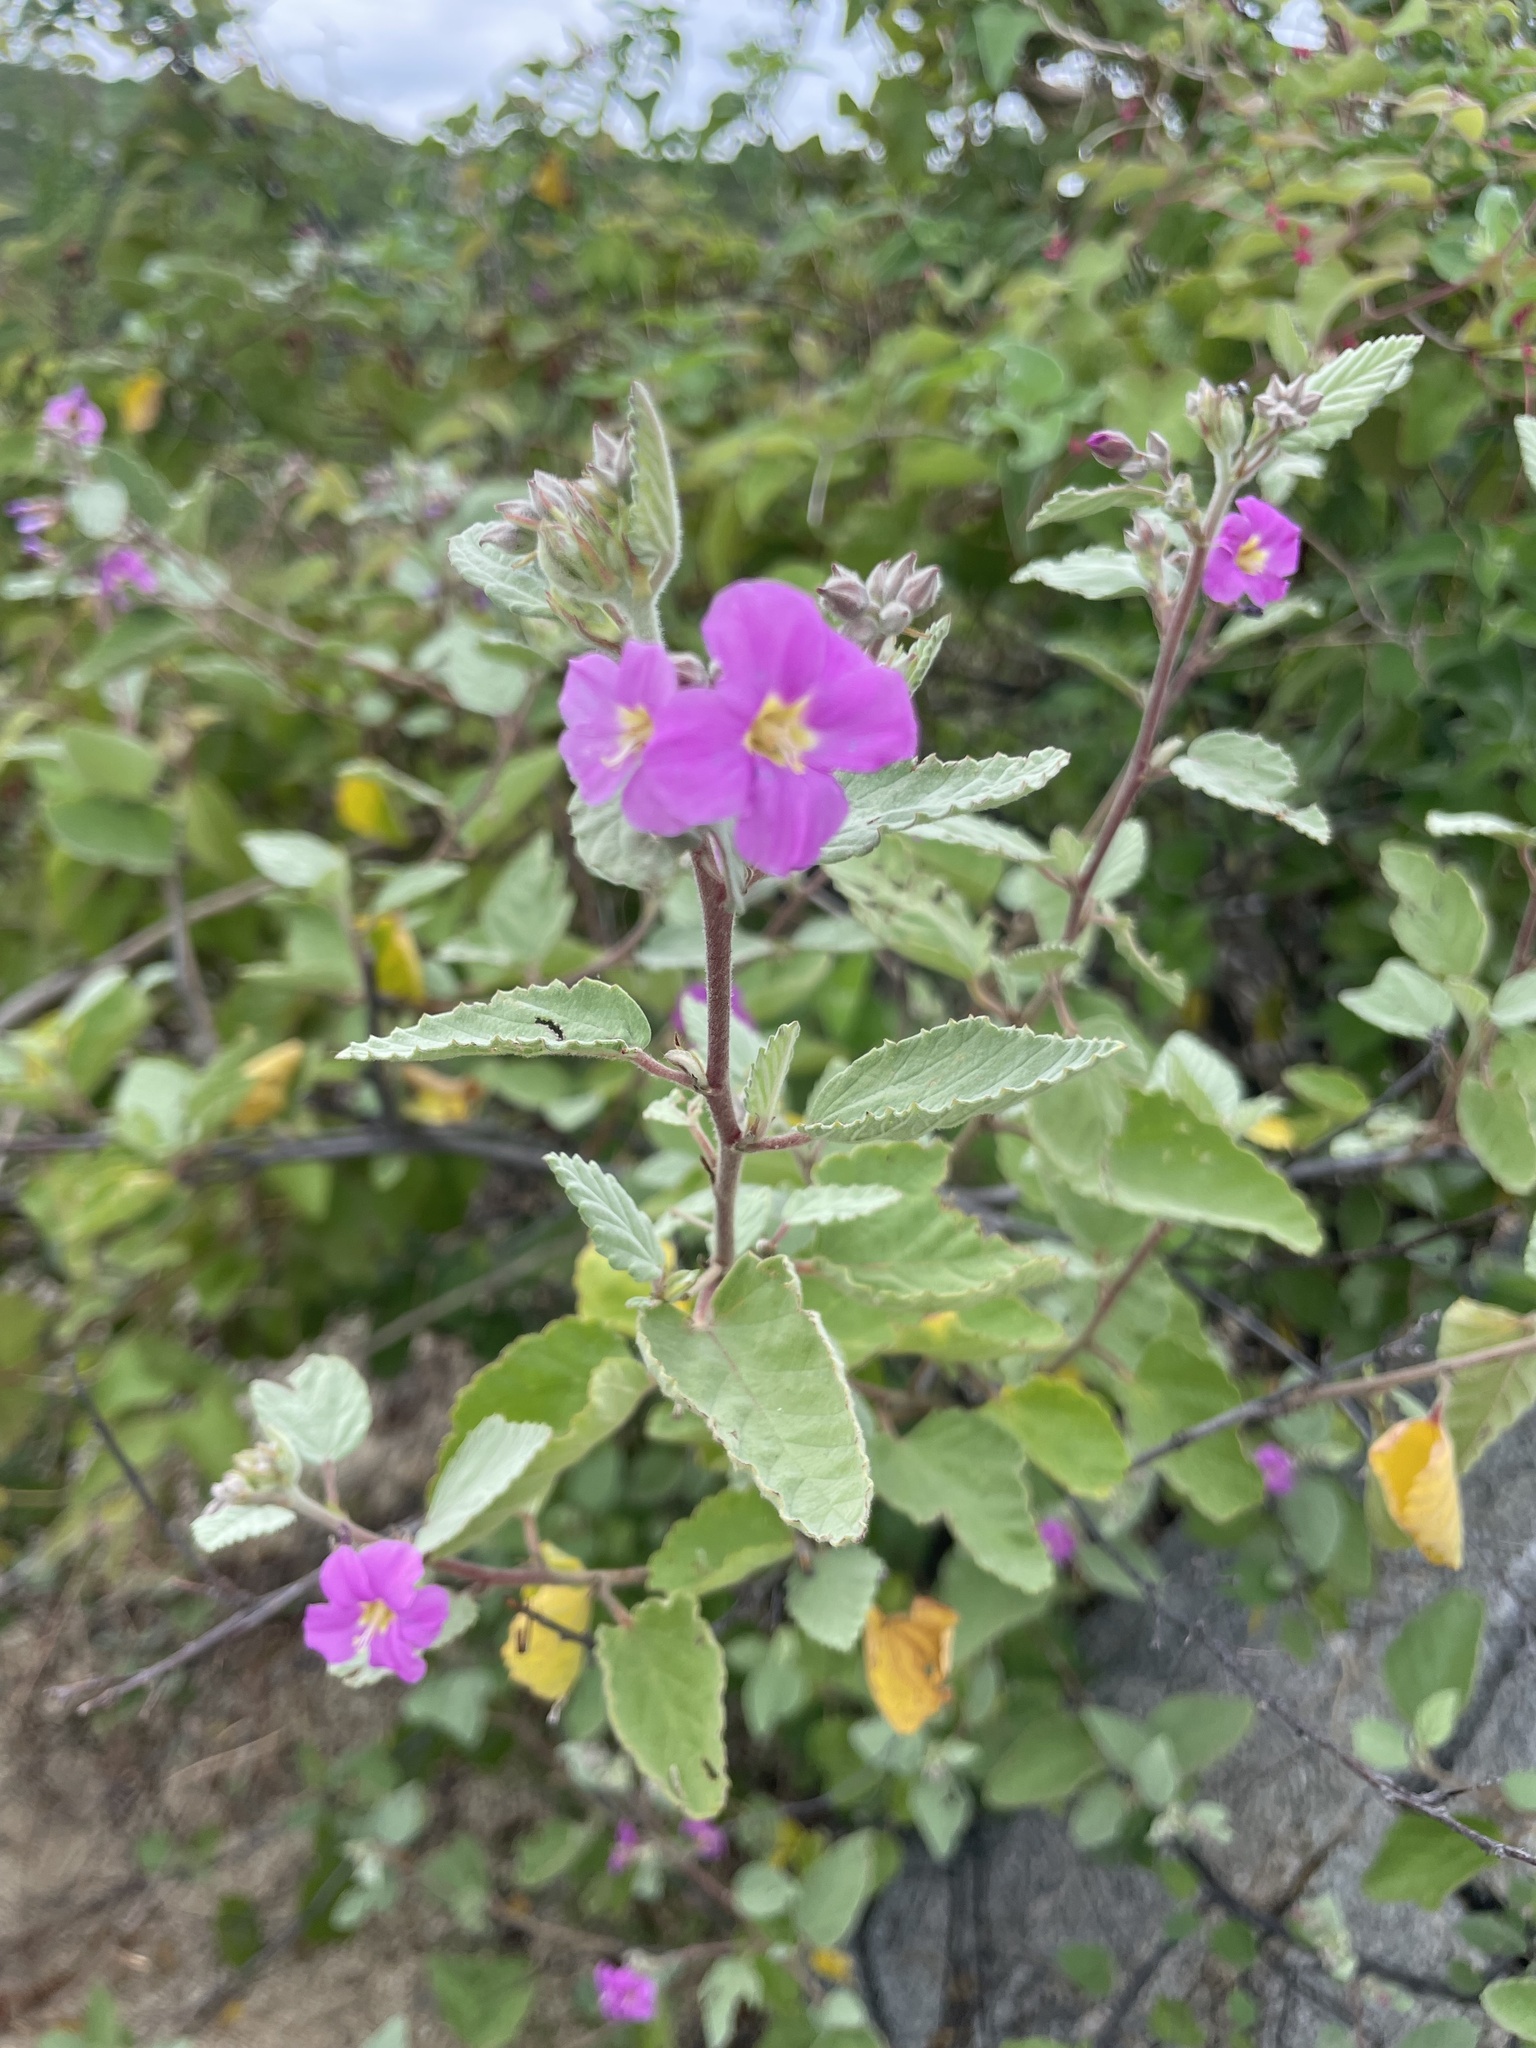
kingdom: Plantae
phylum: Tracheophyta
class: Magnoliopsida
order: Malvales
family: Malvaceae
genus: Melochia
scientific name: Melochia tomentosa
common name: Black torch
